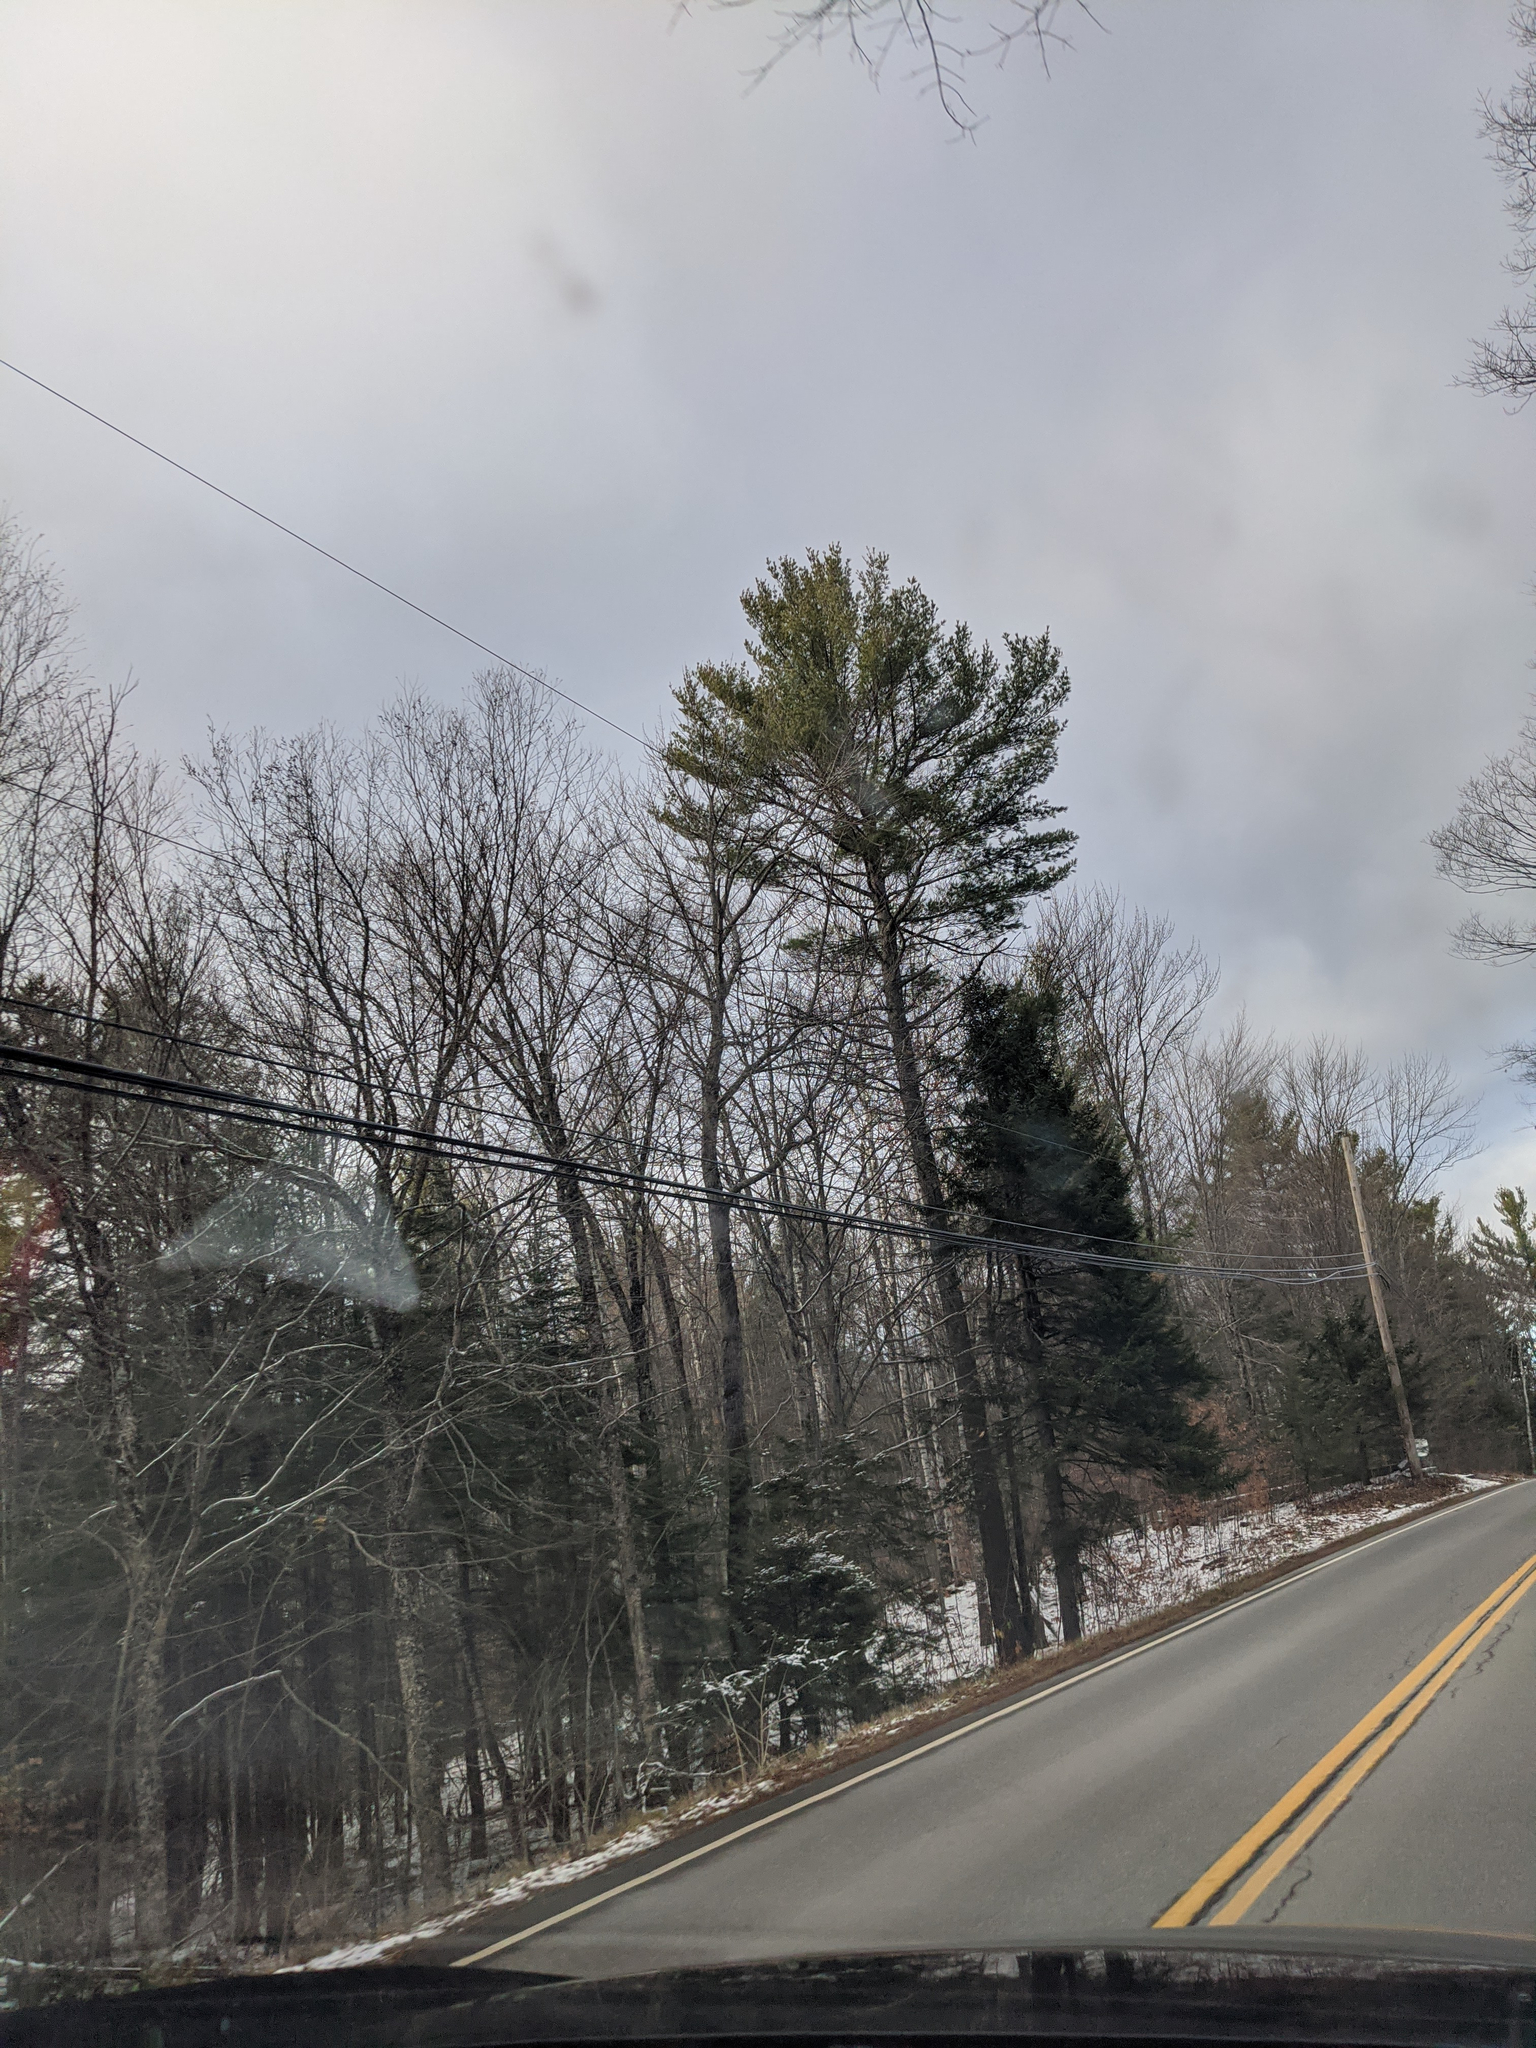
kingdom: Plantae
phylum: Tracheophyta
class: Pinopsida
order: Pinales
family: Pinaceae
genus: Pinus
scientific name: Pinus strobus
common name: Weymouth pine
